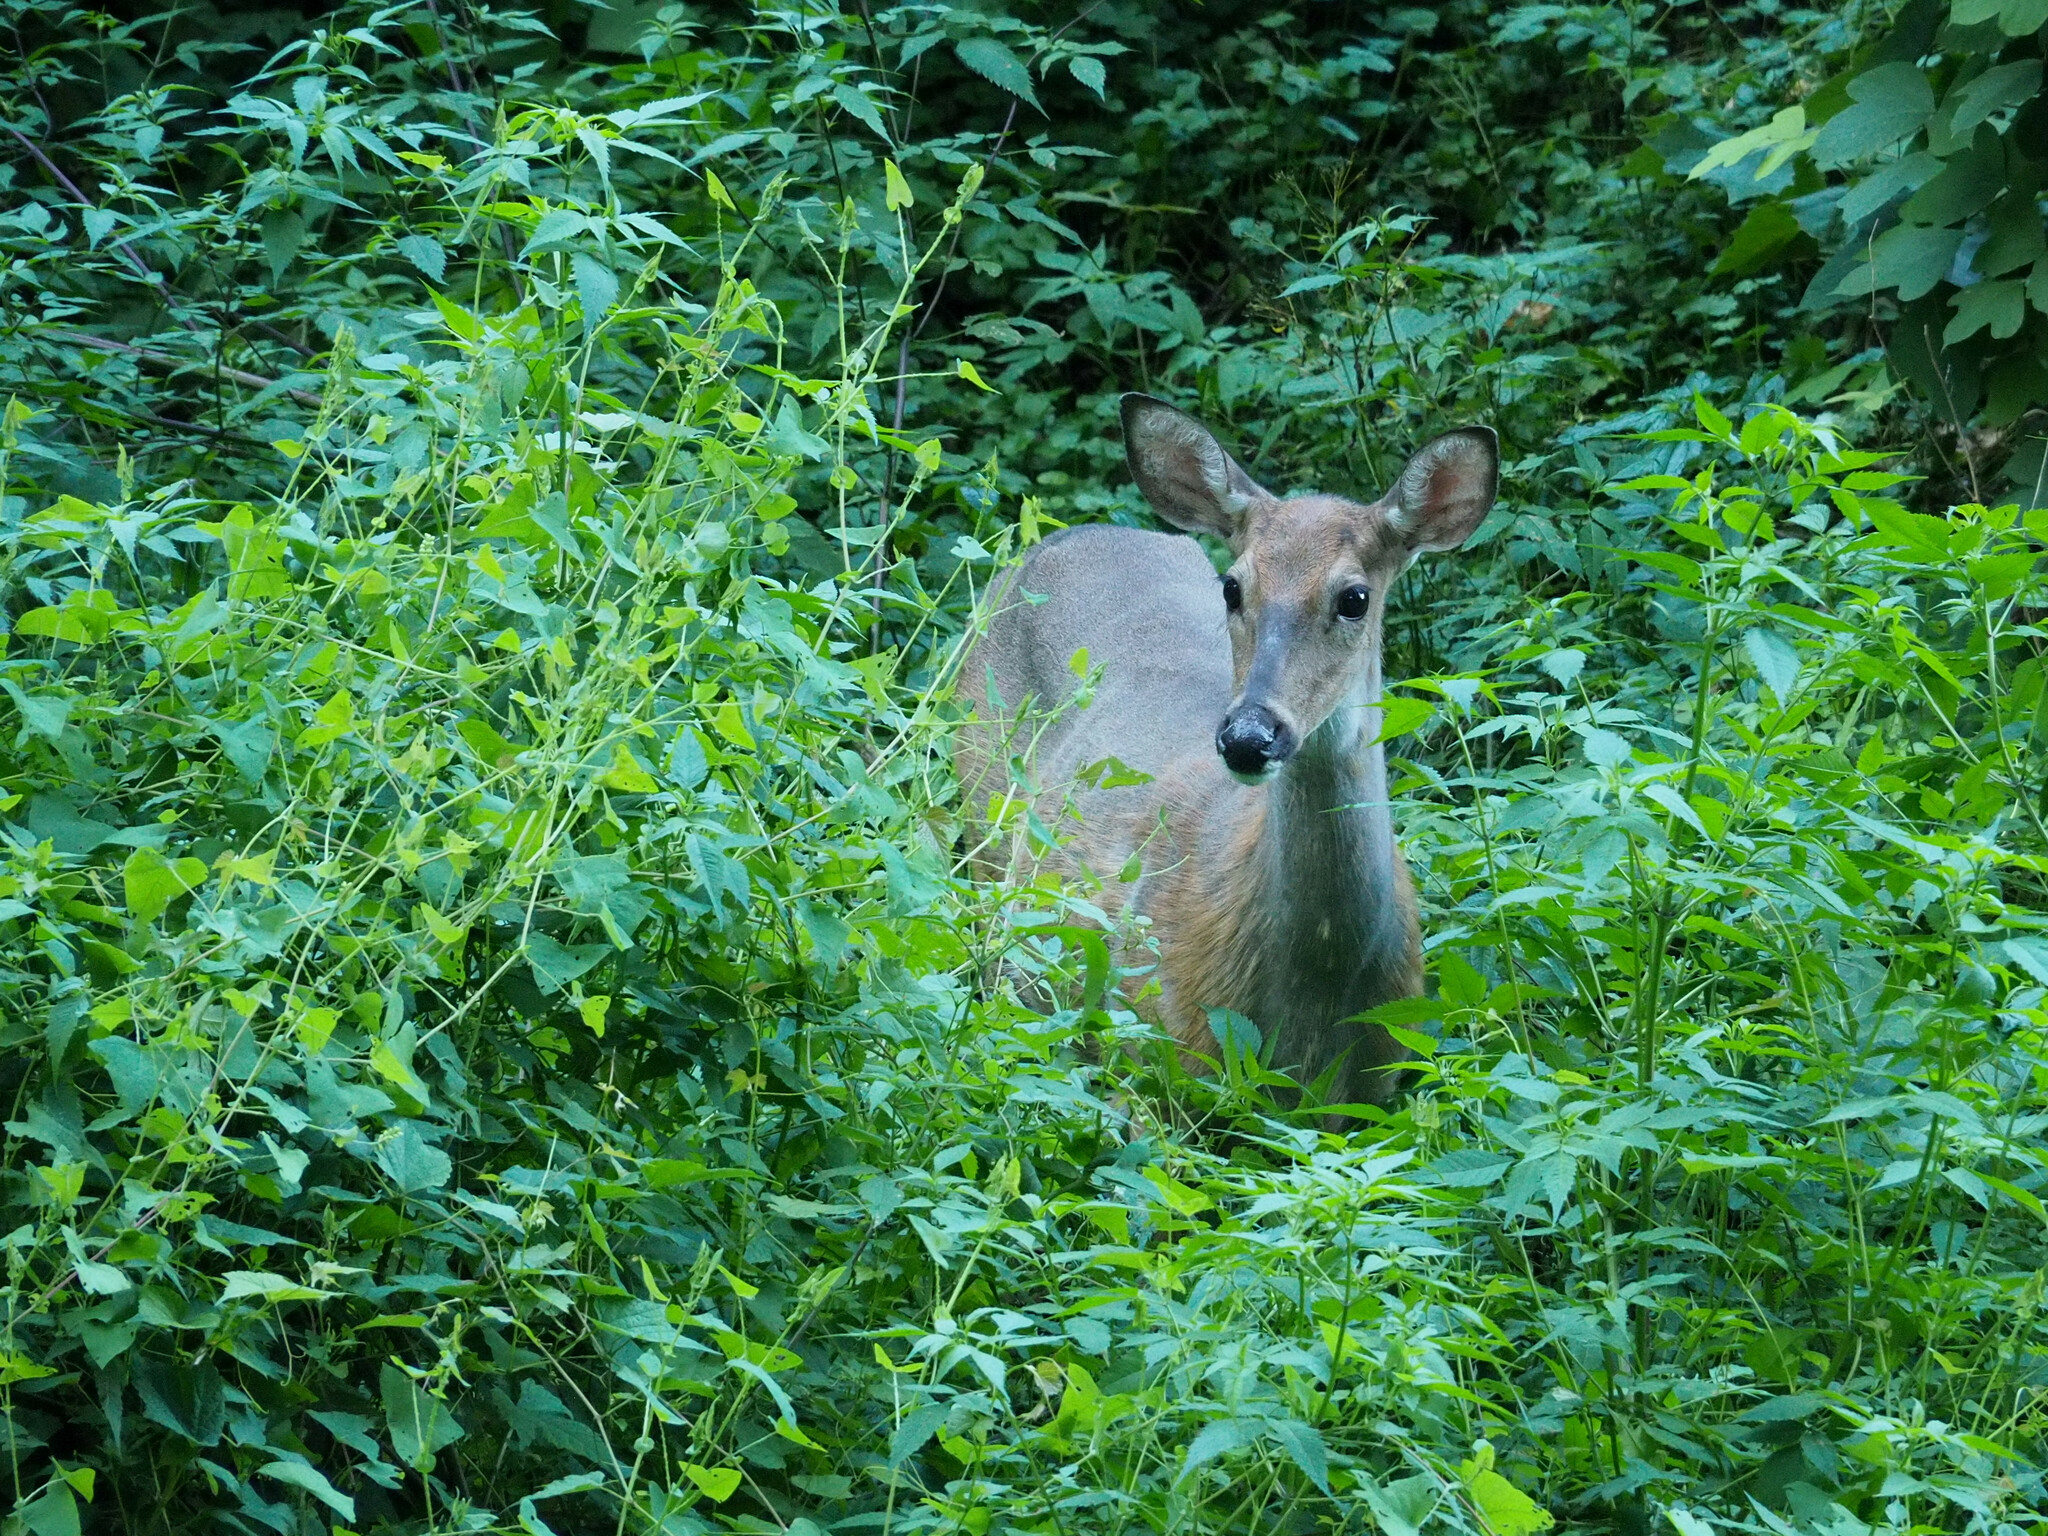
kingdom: Animalia
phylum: Chordata
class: Mammalia
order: Artiodactyla
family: Cervidae
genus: Odocoileus
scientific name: Odocoileus virginianus
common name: White-tailed deer
